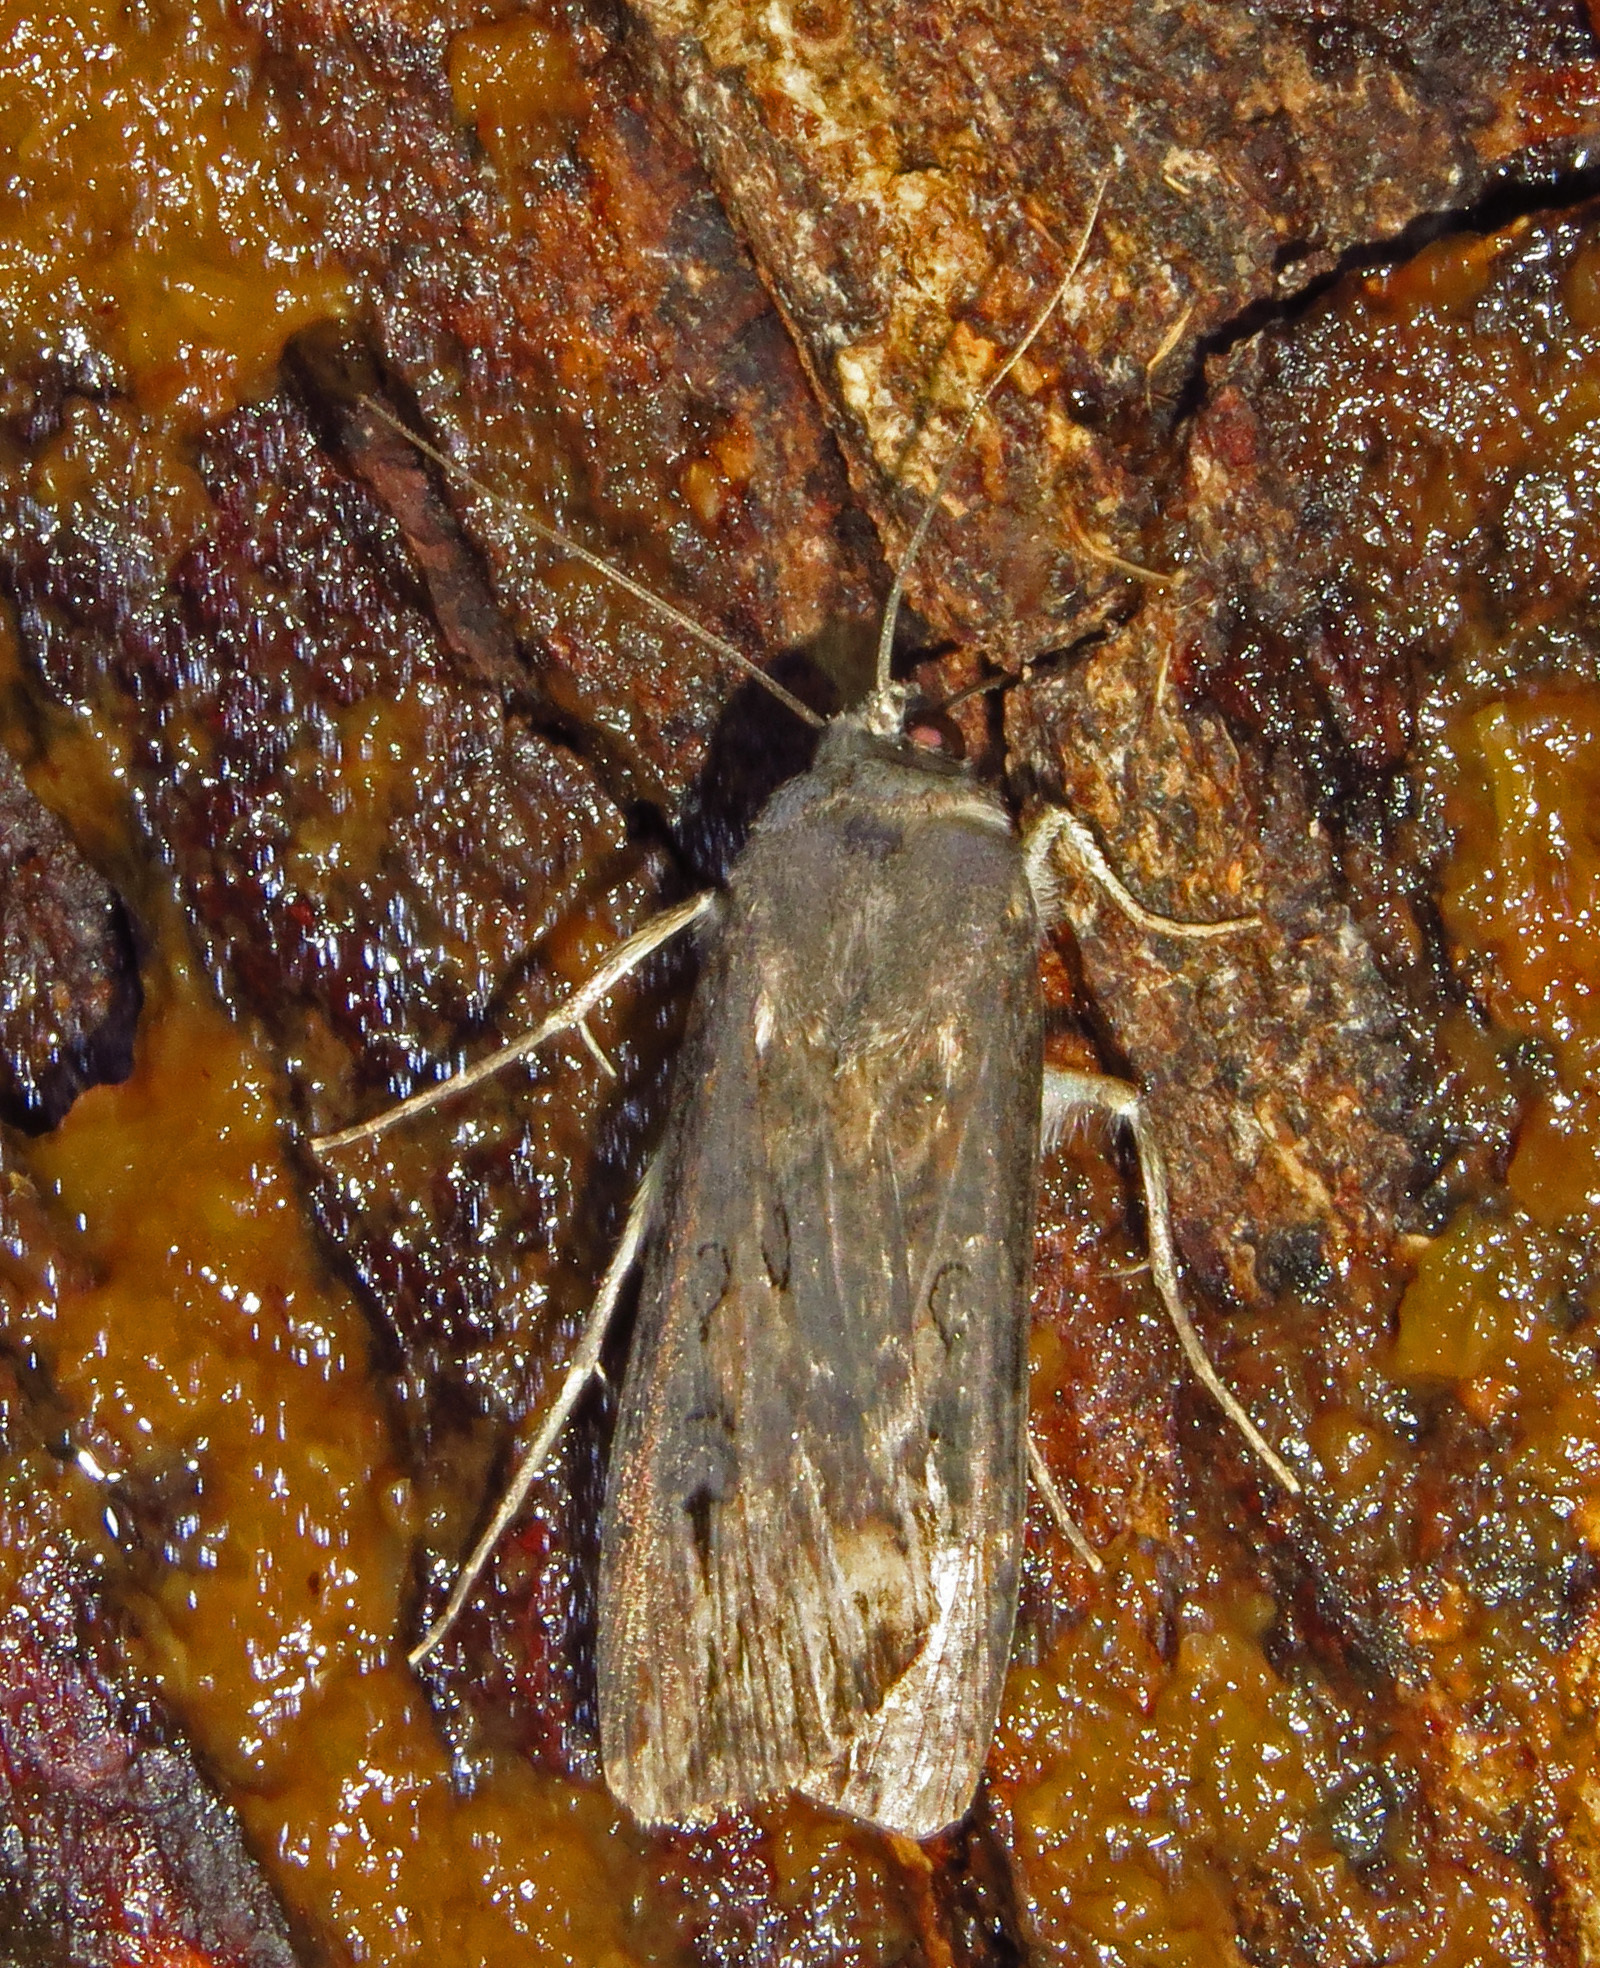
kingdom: Animalia
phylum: Arthropoda
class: Insecta
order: Lepidoptera
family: Noctuidae
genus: Agrotis
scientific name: Agrotis ipsilon
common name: Dark sword-grass
